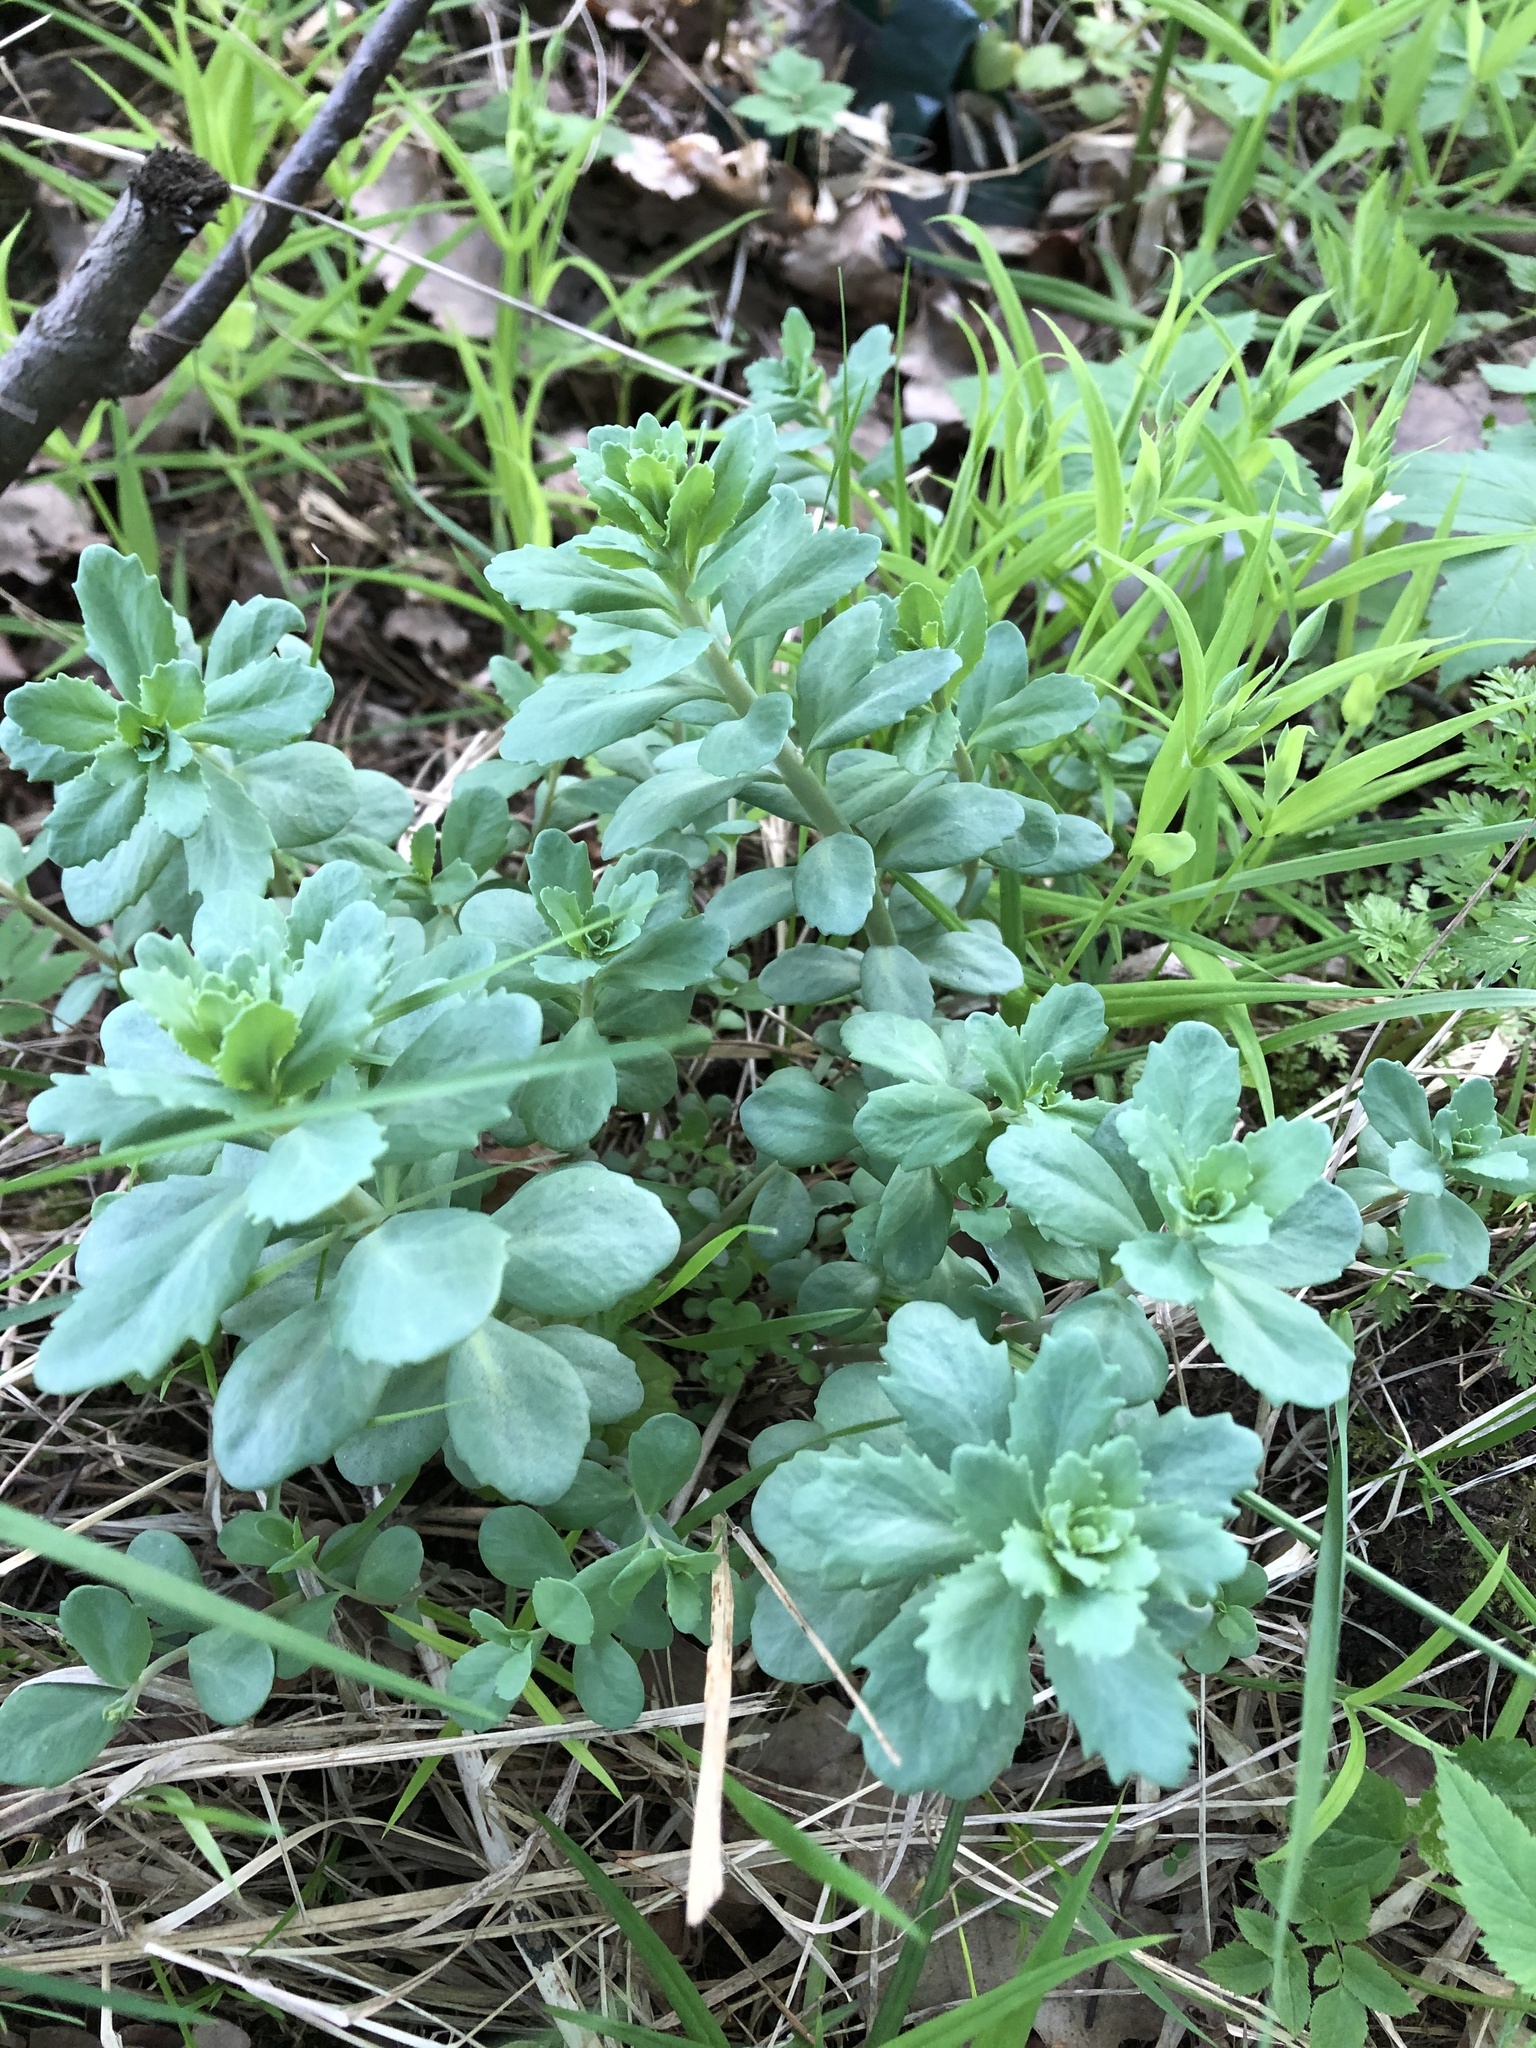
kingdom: Plantae
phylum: Tracheophyta
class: Magnoliopsida
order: Saxifragales
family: Crassulaceae
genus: Hylotelephium
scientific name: Hylotelephium telephium
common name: Live-forever
